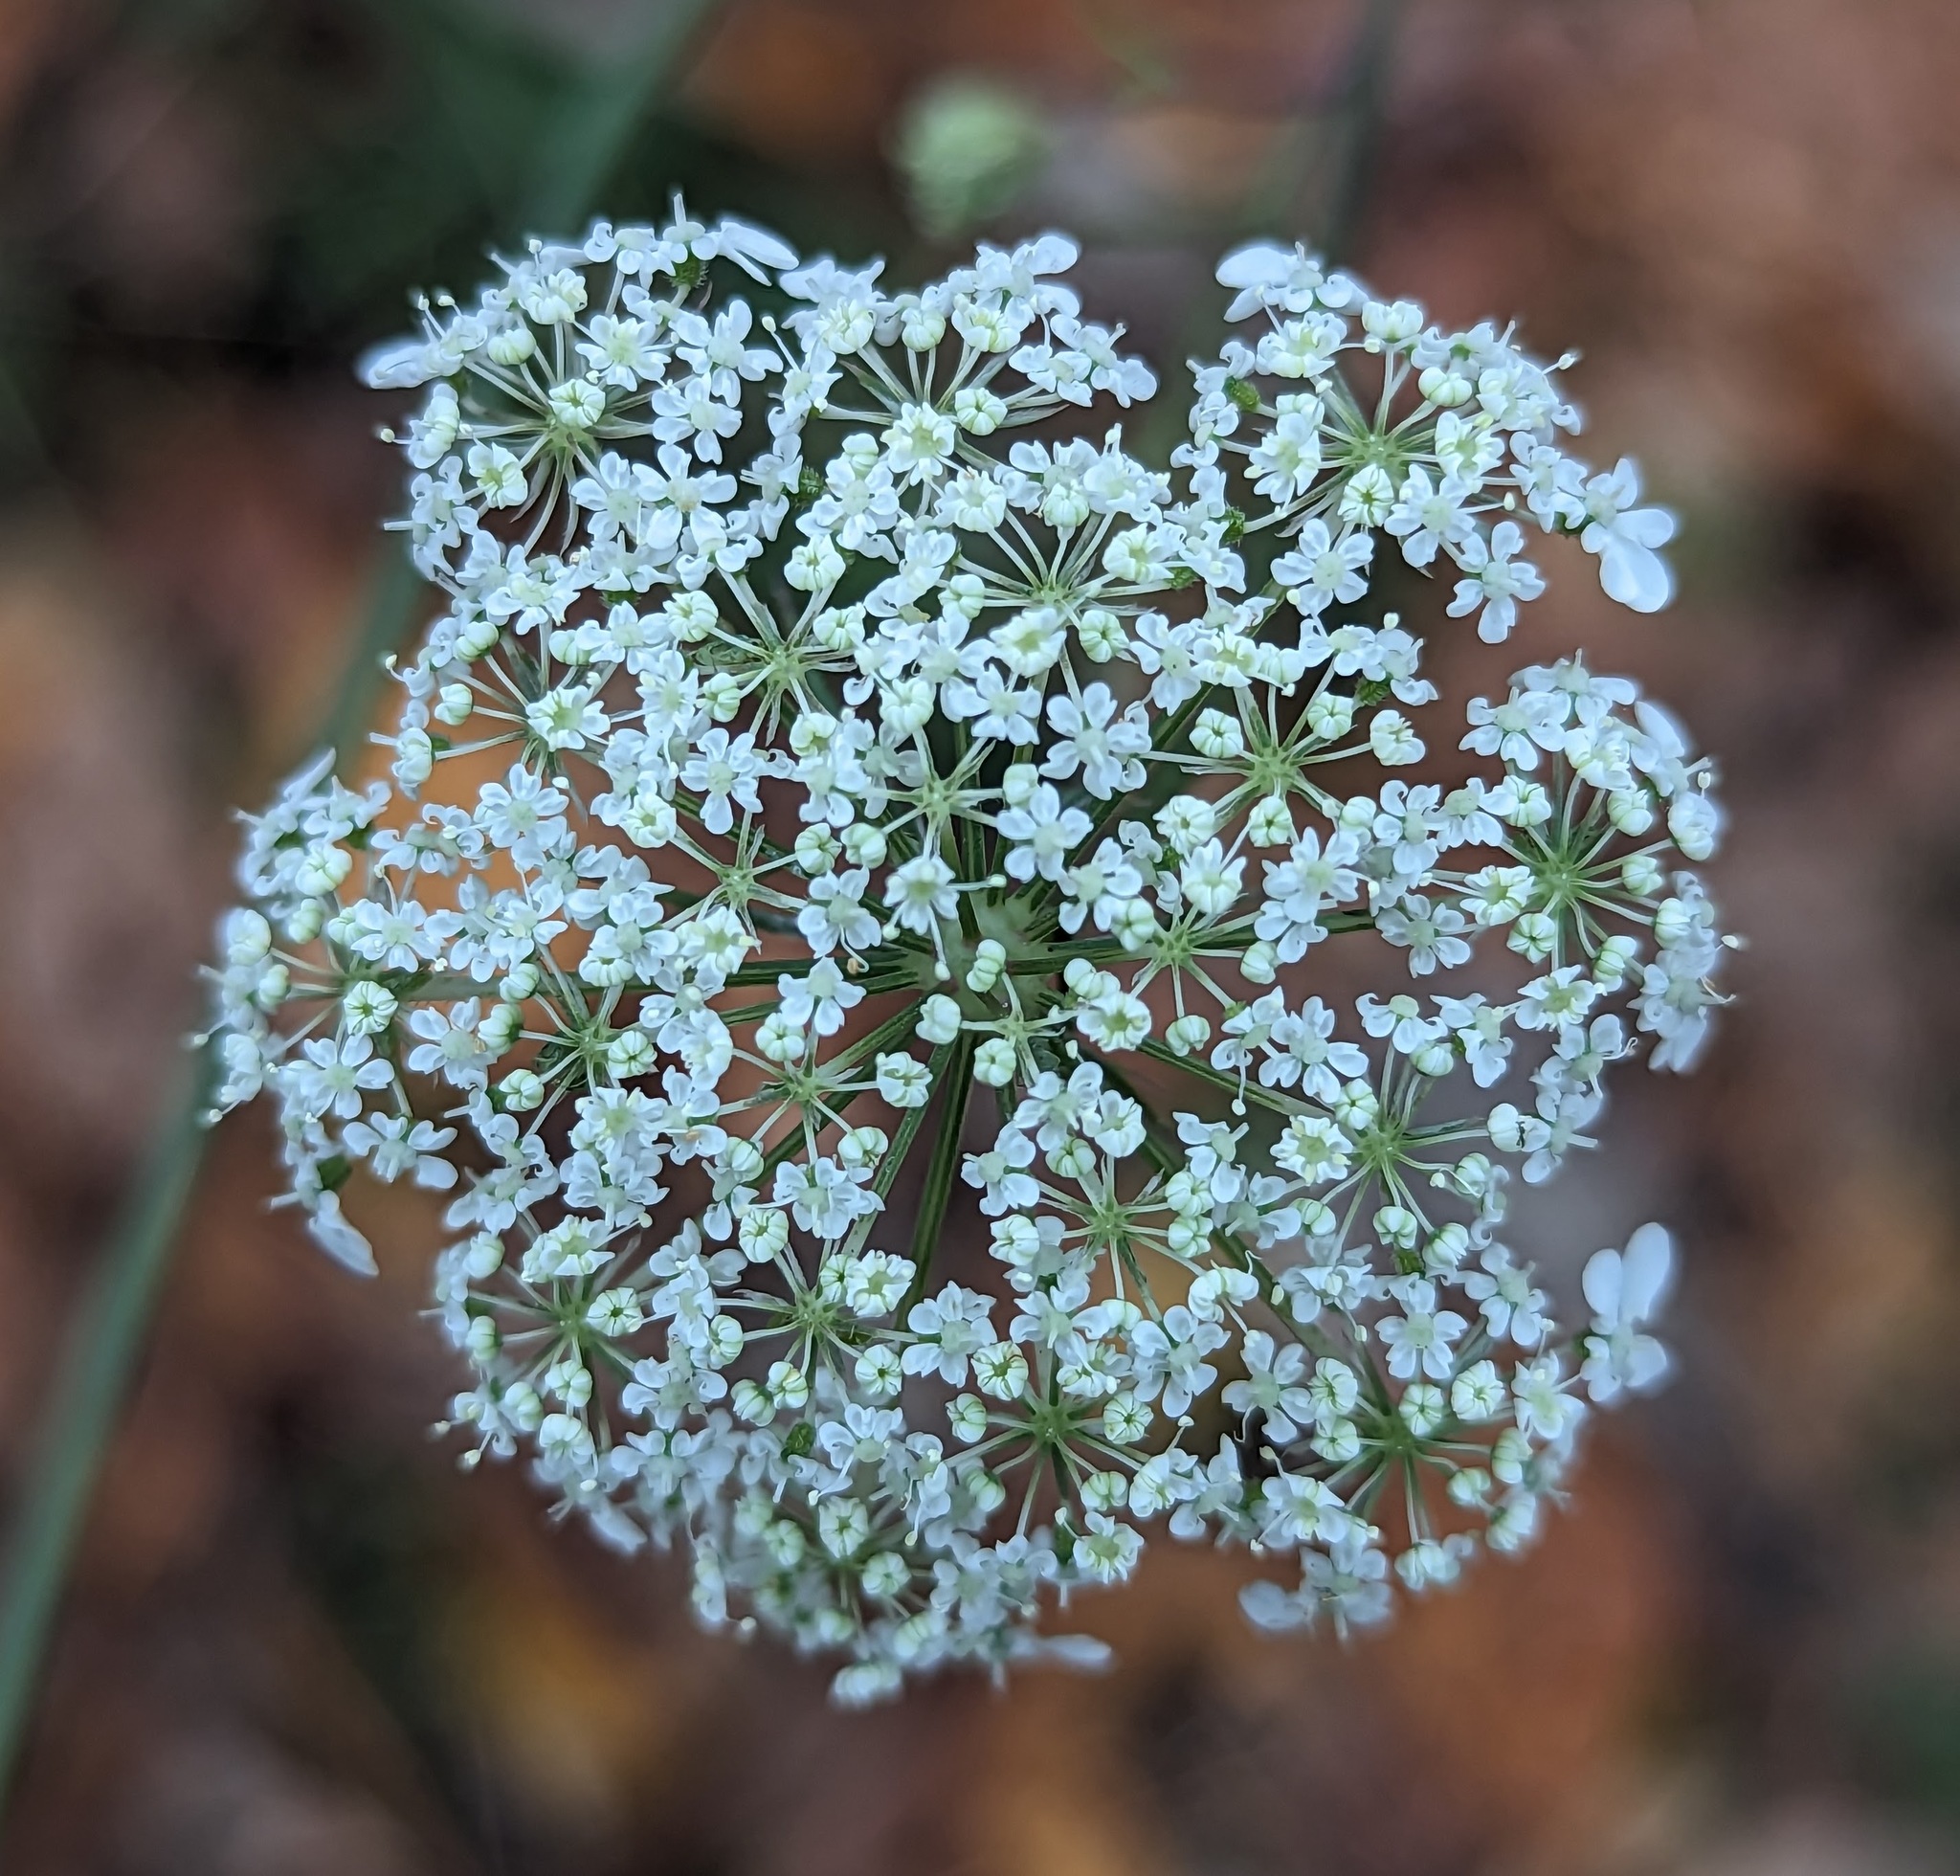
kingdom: Plantae
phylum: Tracheophyta
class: Magnoliopsida
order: Apiales
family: Apiaceae
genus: Daucus
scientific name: Daucus carota
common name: Wild carrot
